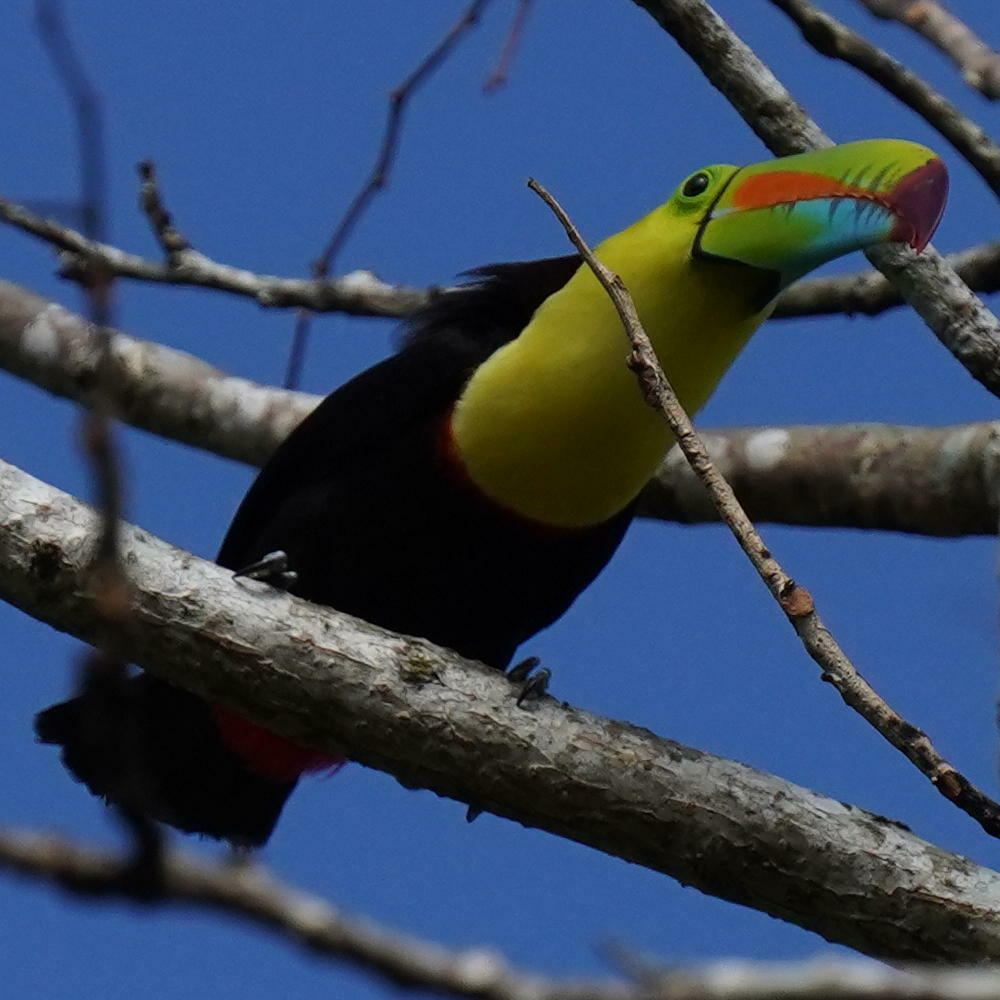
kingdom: Animalia
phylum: Chordata
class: Aves
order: Piciformes
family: Ramphastidae
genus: Ramphastos
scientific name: Ramphastos sulfuratus
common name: Keel-billed toucan
